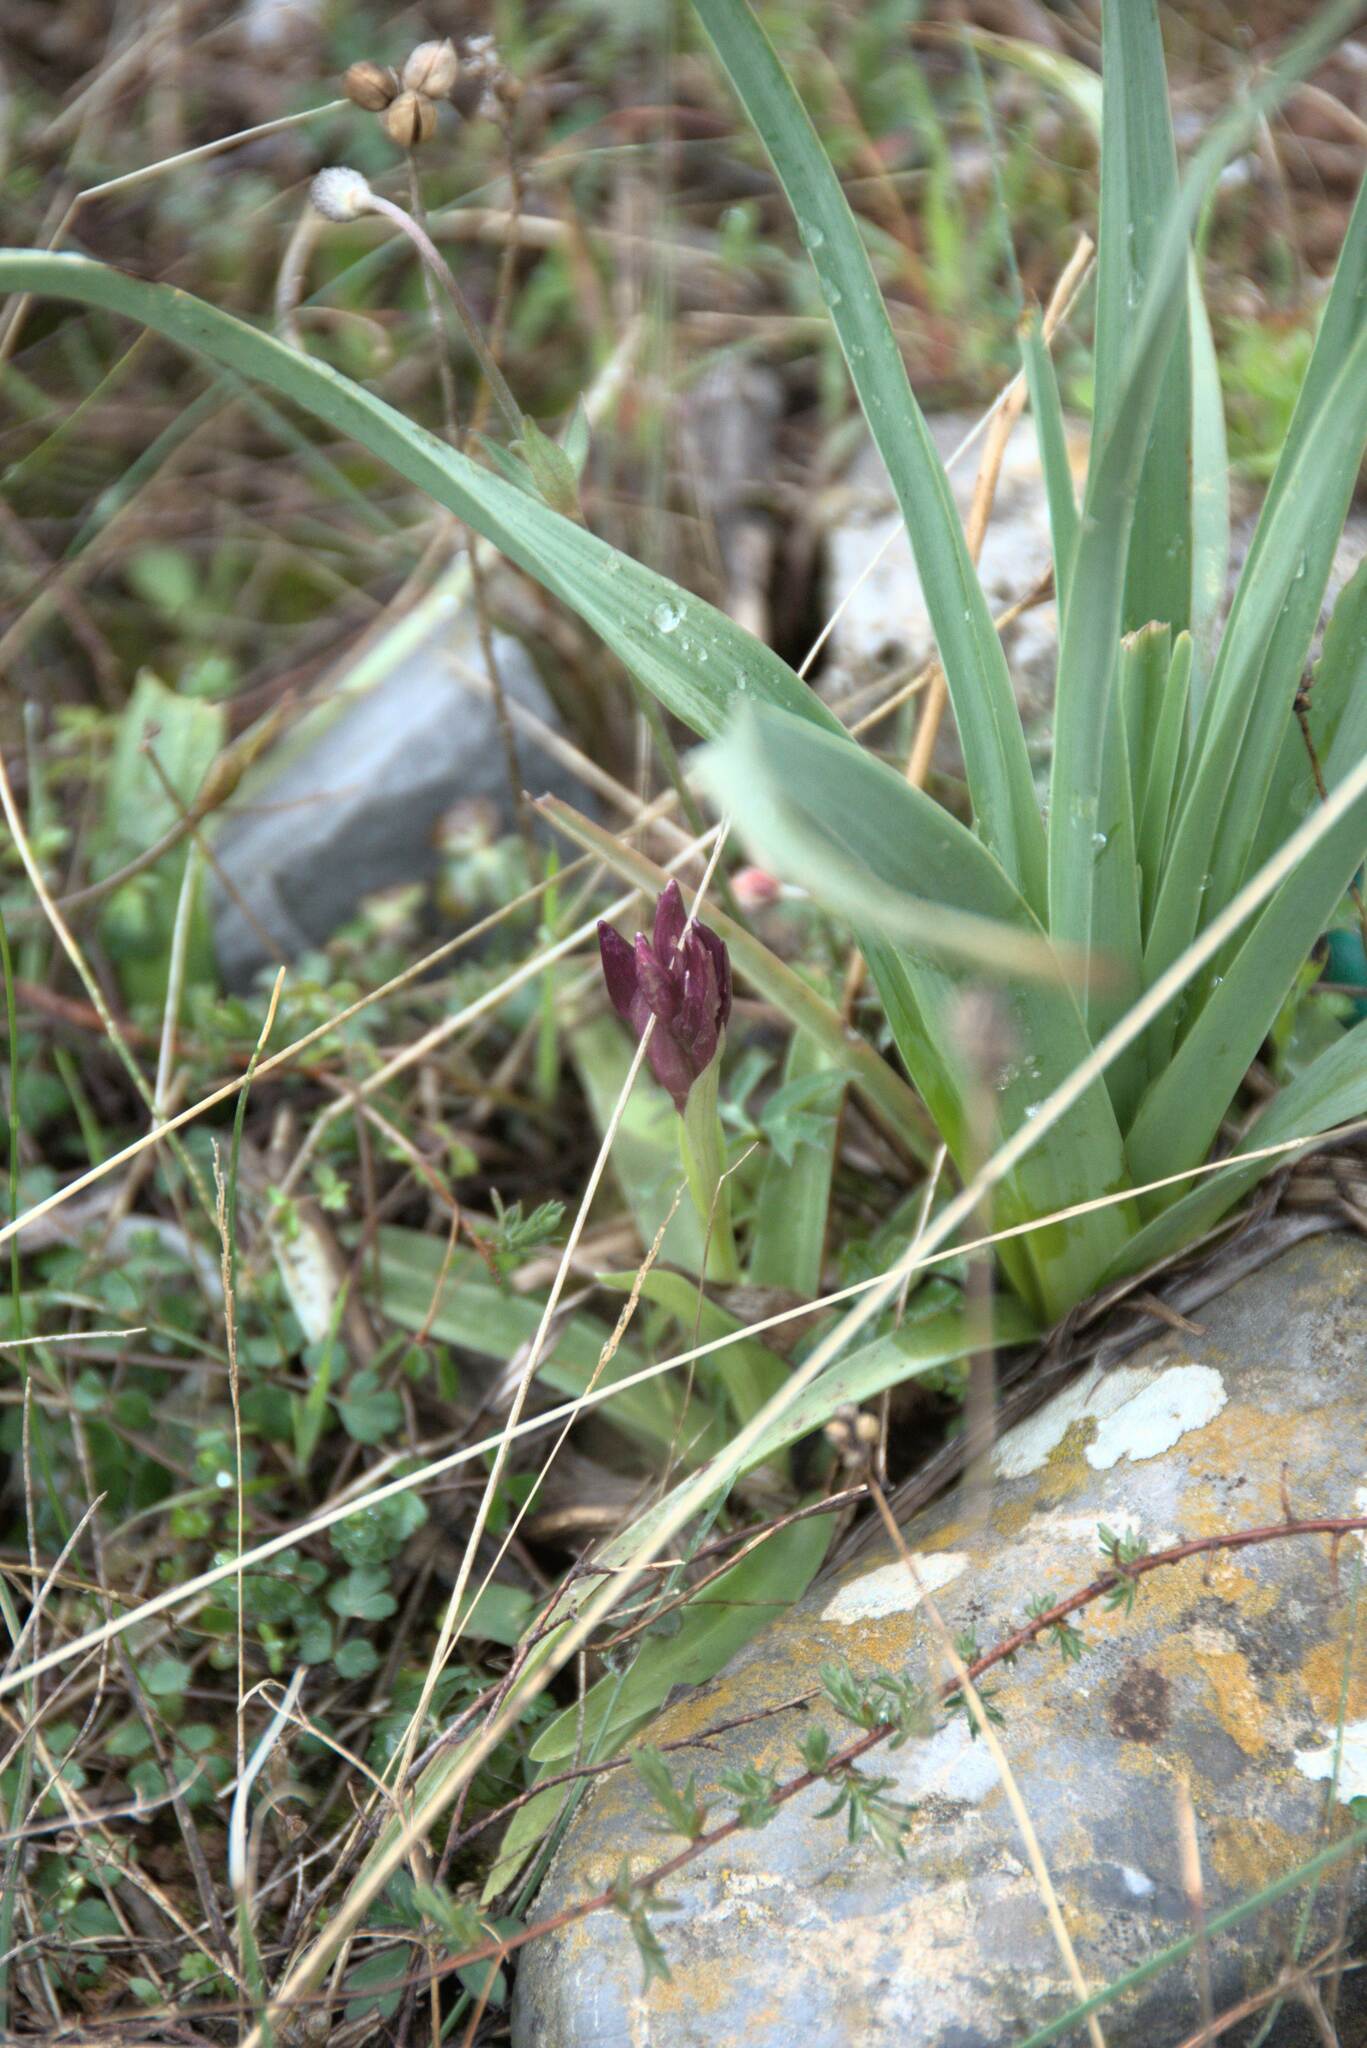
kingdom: Plantae
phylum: Tracheophyta
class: Liliopsida
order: Asparagales
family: Orchidaceae
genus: Anacamptis
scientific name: Anacamptis papilionacea
